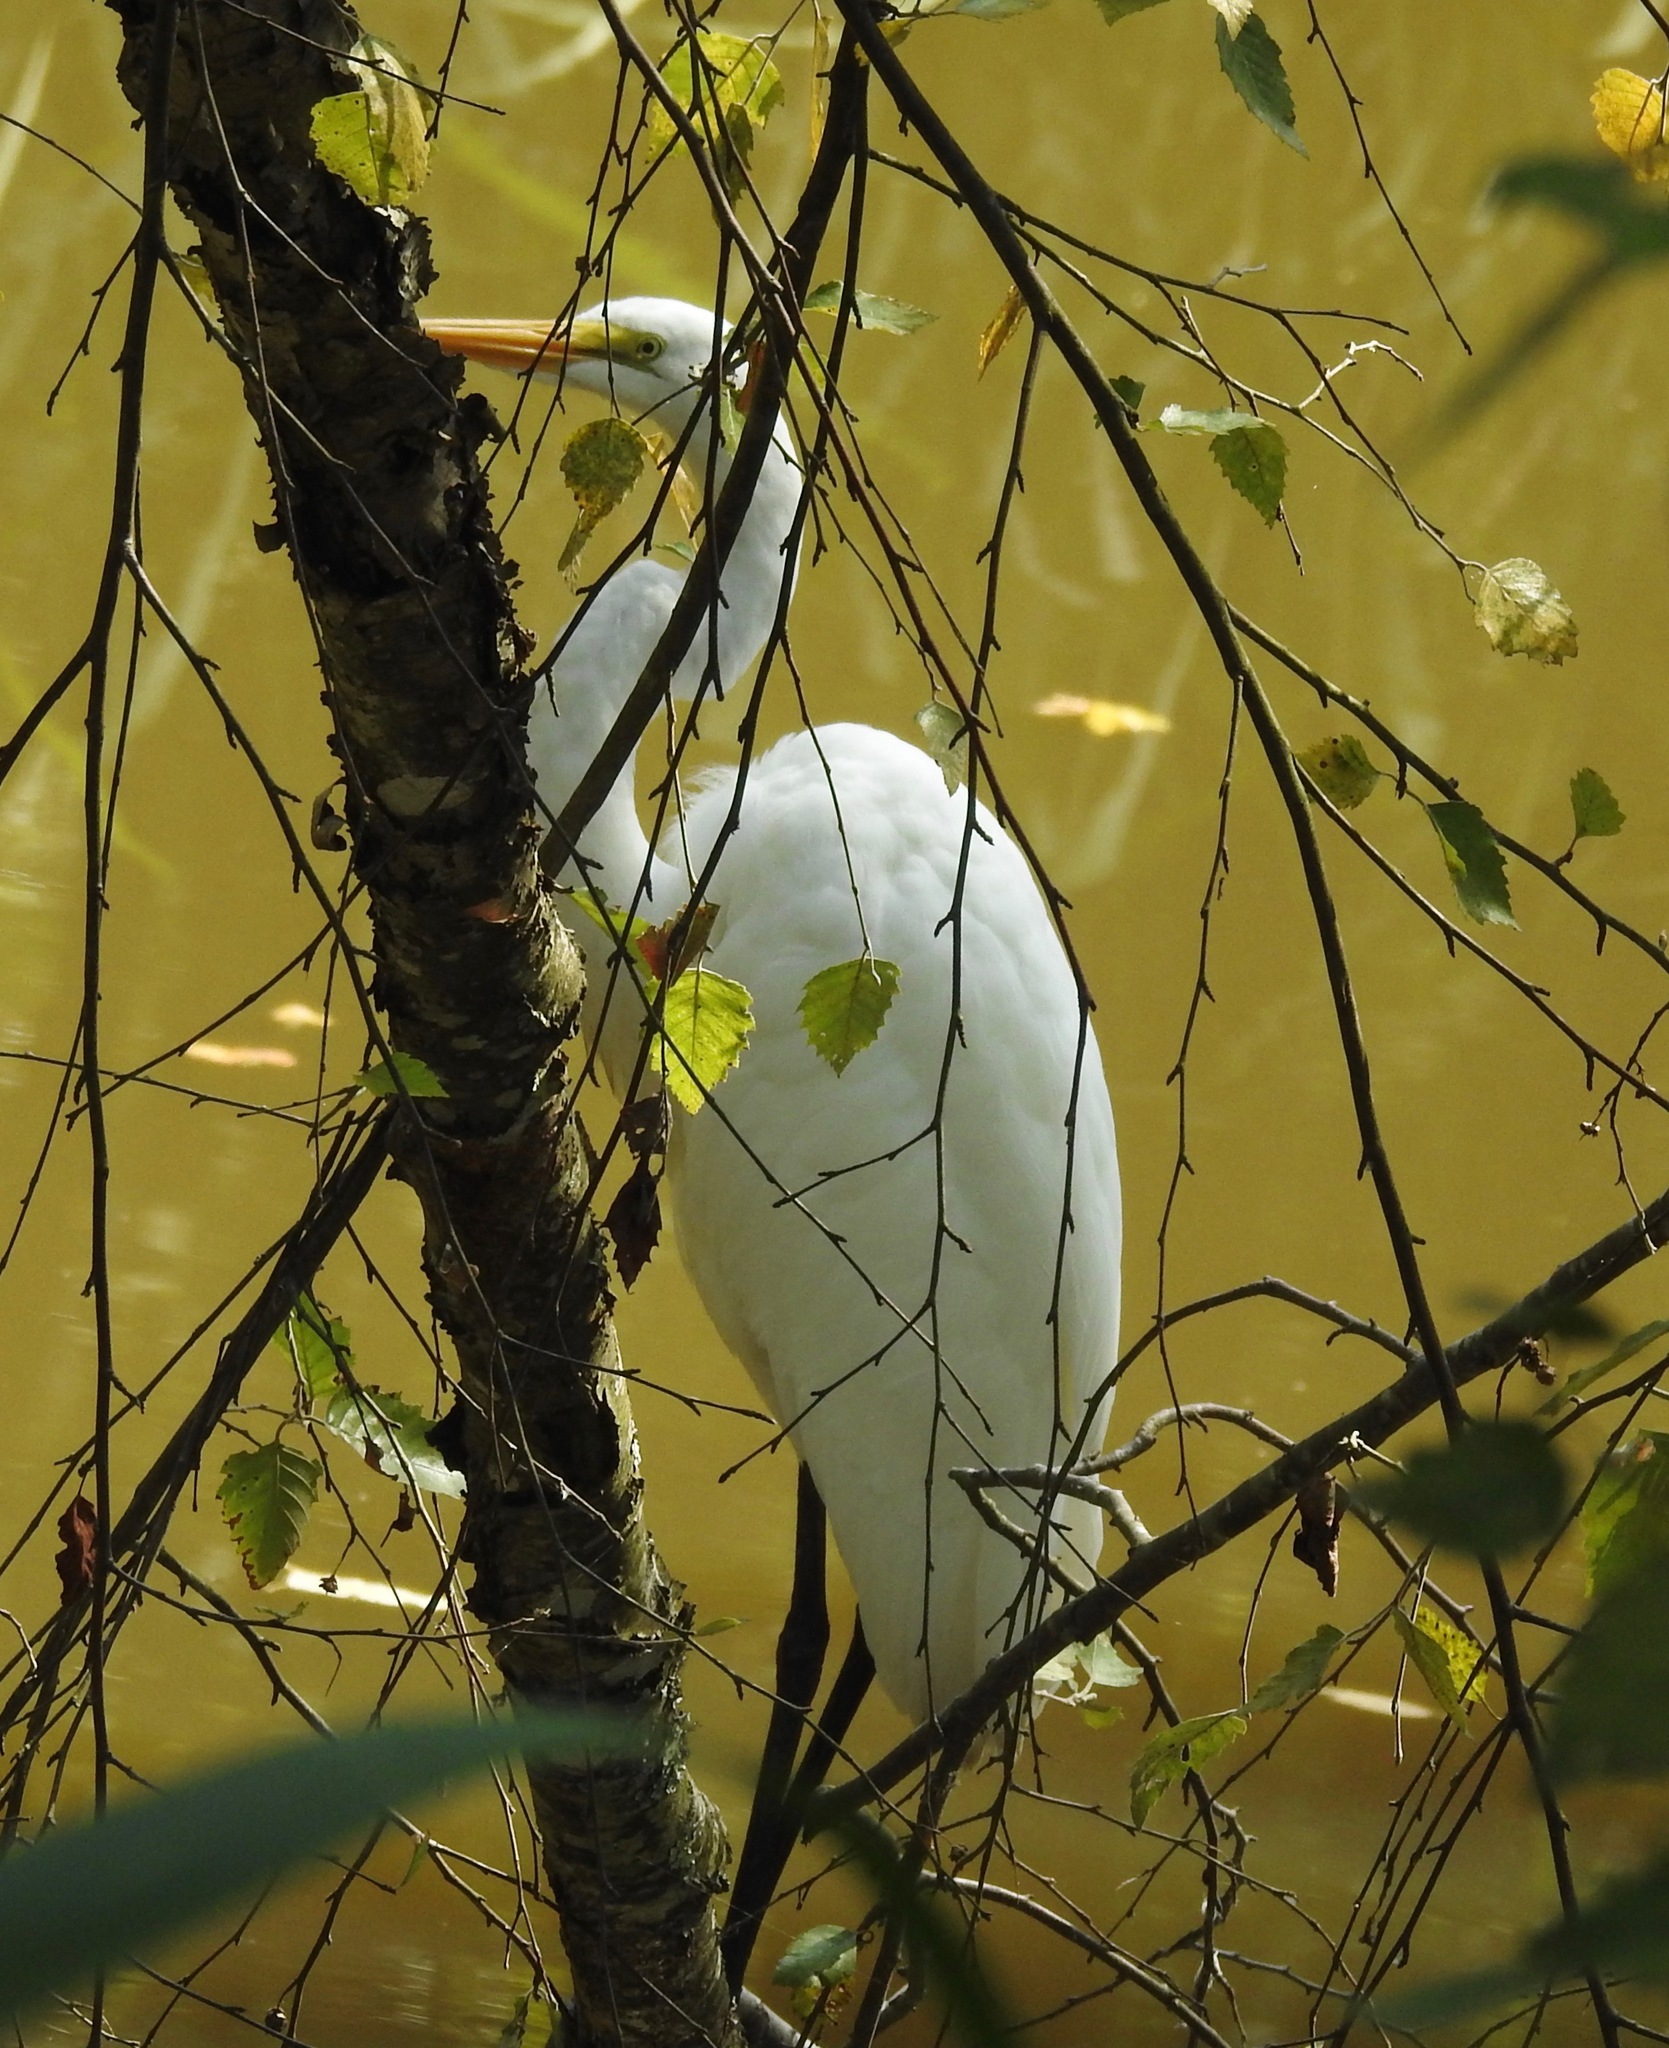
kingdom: Animalia
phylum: Chordata
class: Aves
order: Pelecaniformes
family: Ardeidae
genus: Ardea
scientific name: Ardea alba
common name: Great egret
